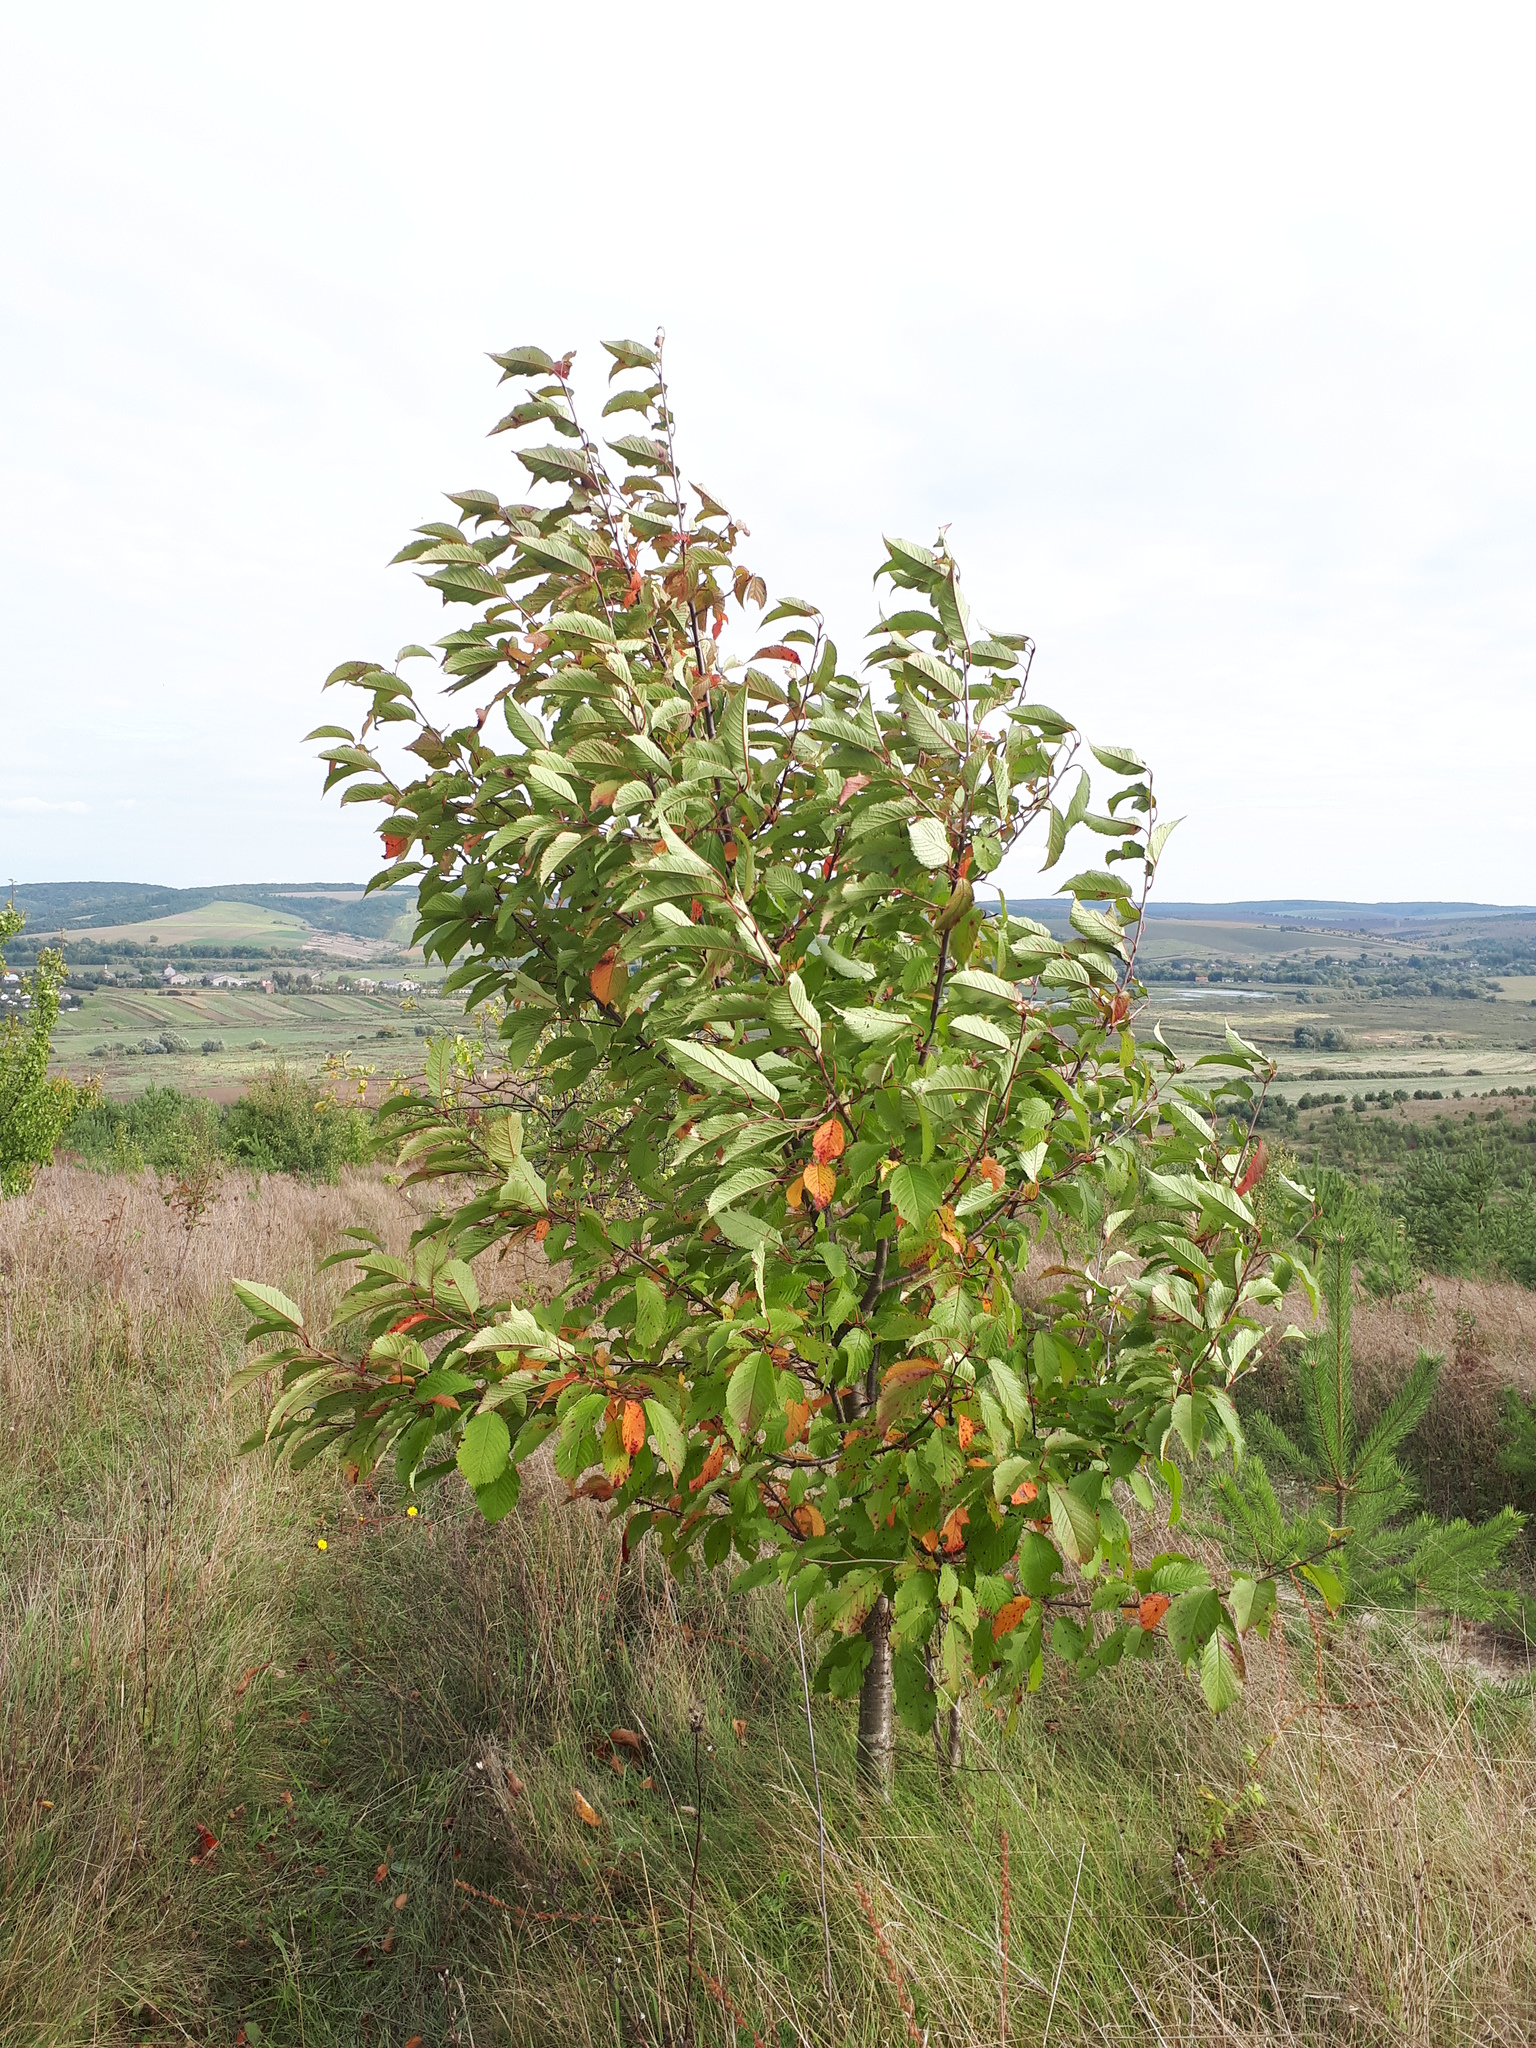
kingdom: Plantae
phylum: Tracheophyta
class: Magnoliopsida
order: Rosales
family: Rosaceae
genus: Prunus
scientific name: Prunus avium
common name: Sweet cherry
